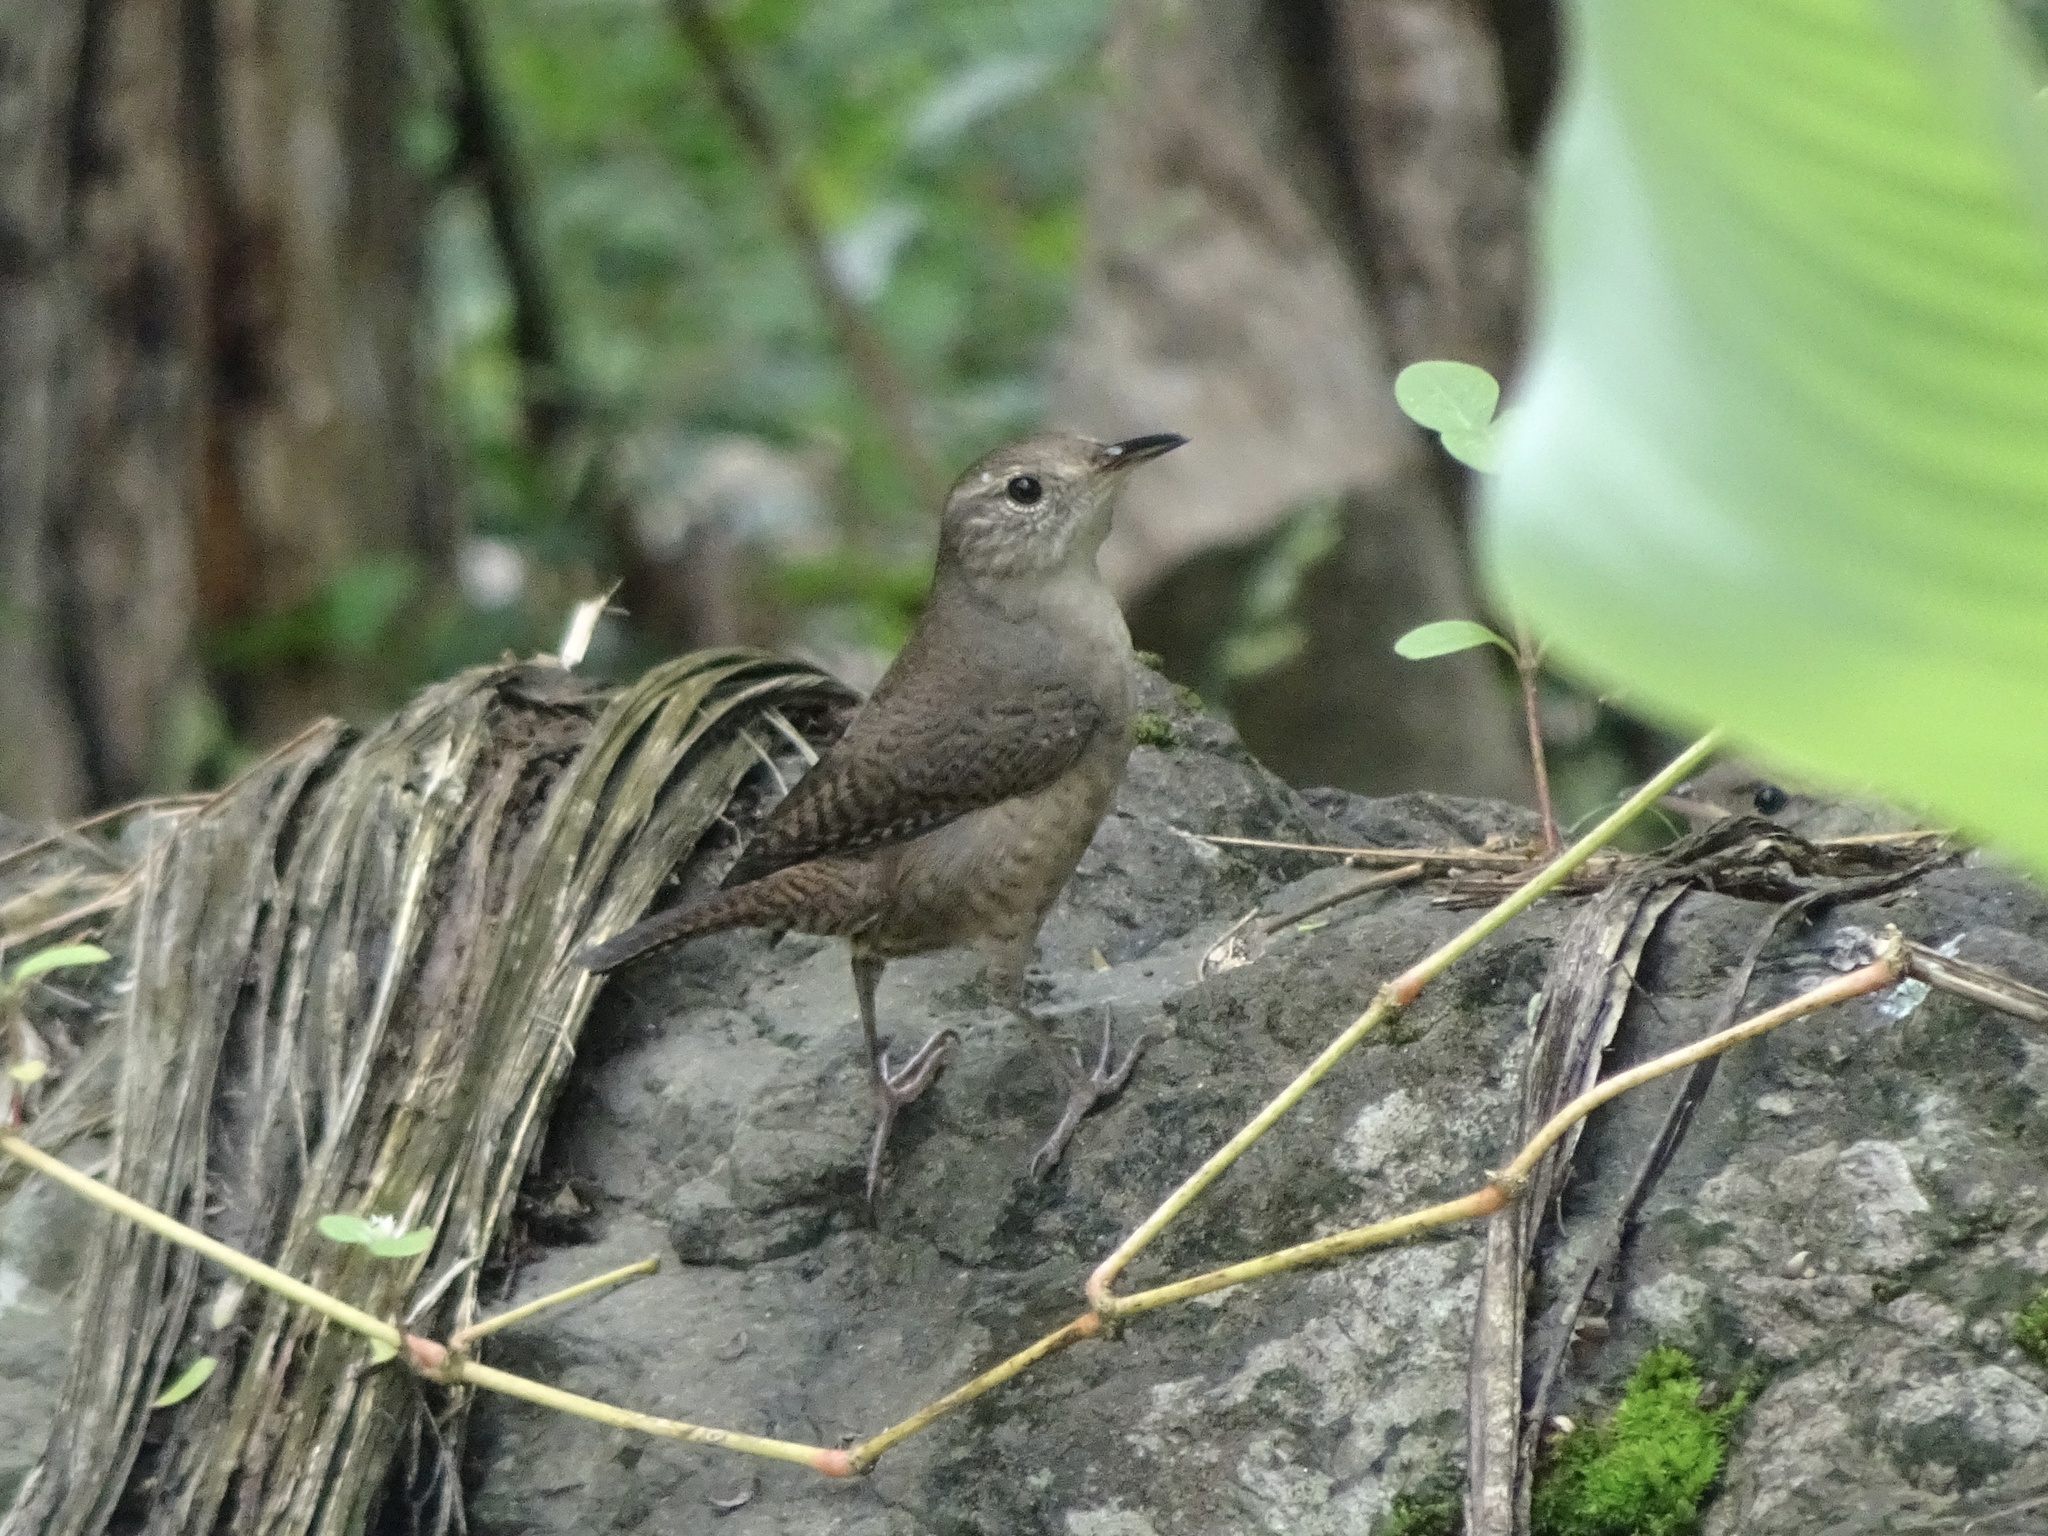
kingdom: Animalia
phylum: Chordata
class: Aves
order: Passeriformes
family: Troglodytidae
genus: Troglodytes
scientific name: Troglodytes aedon
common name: House wren
